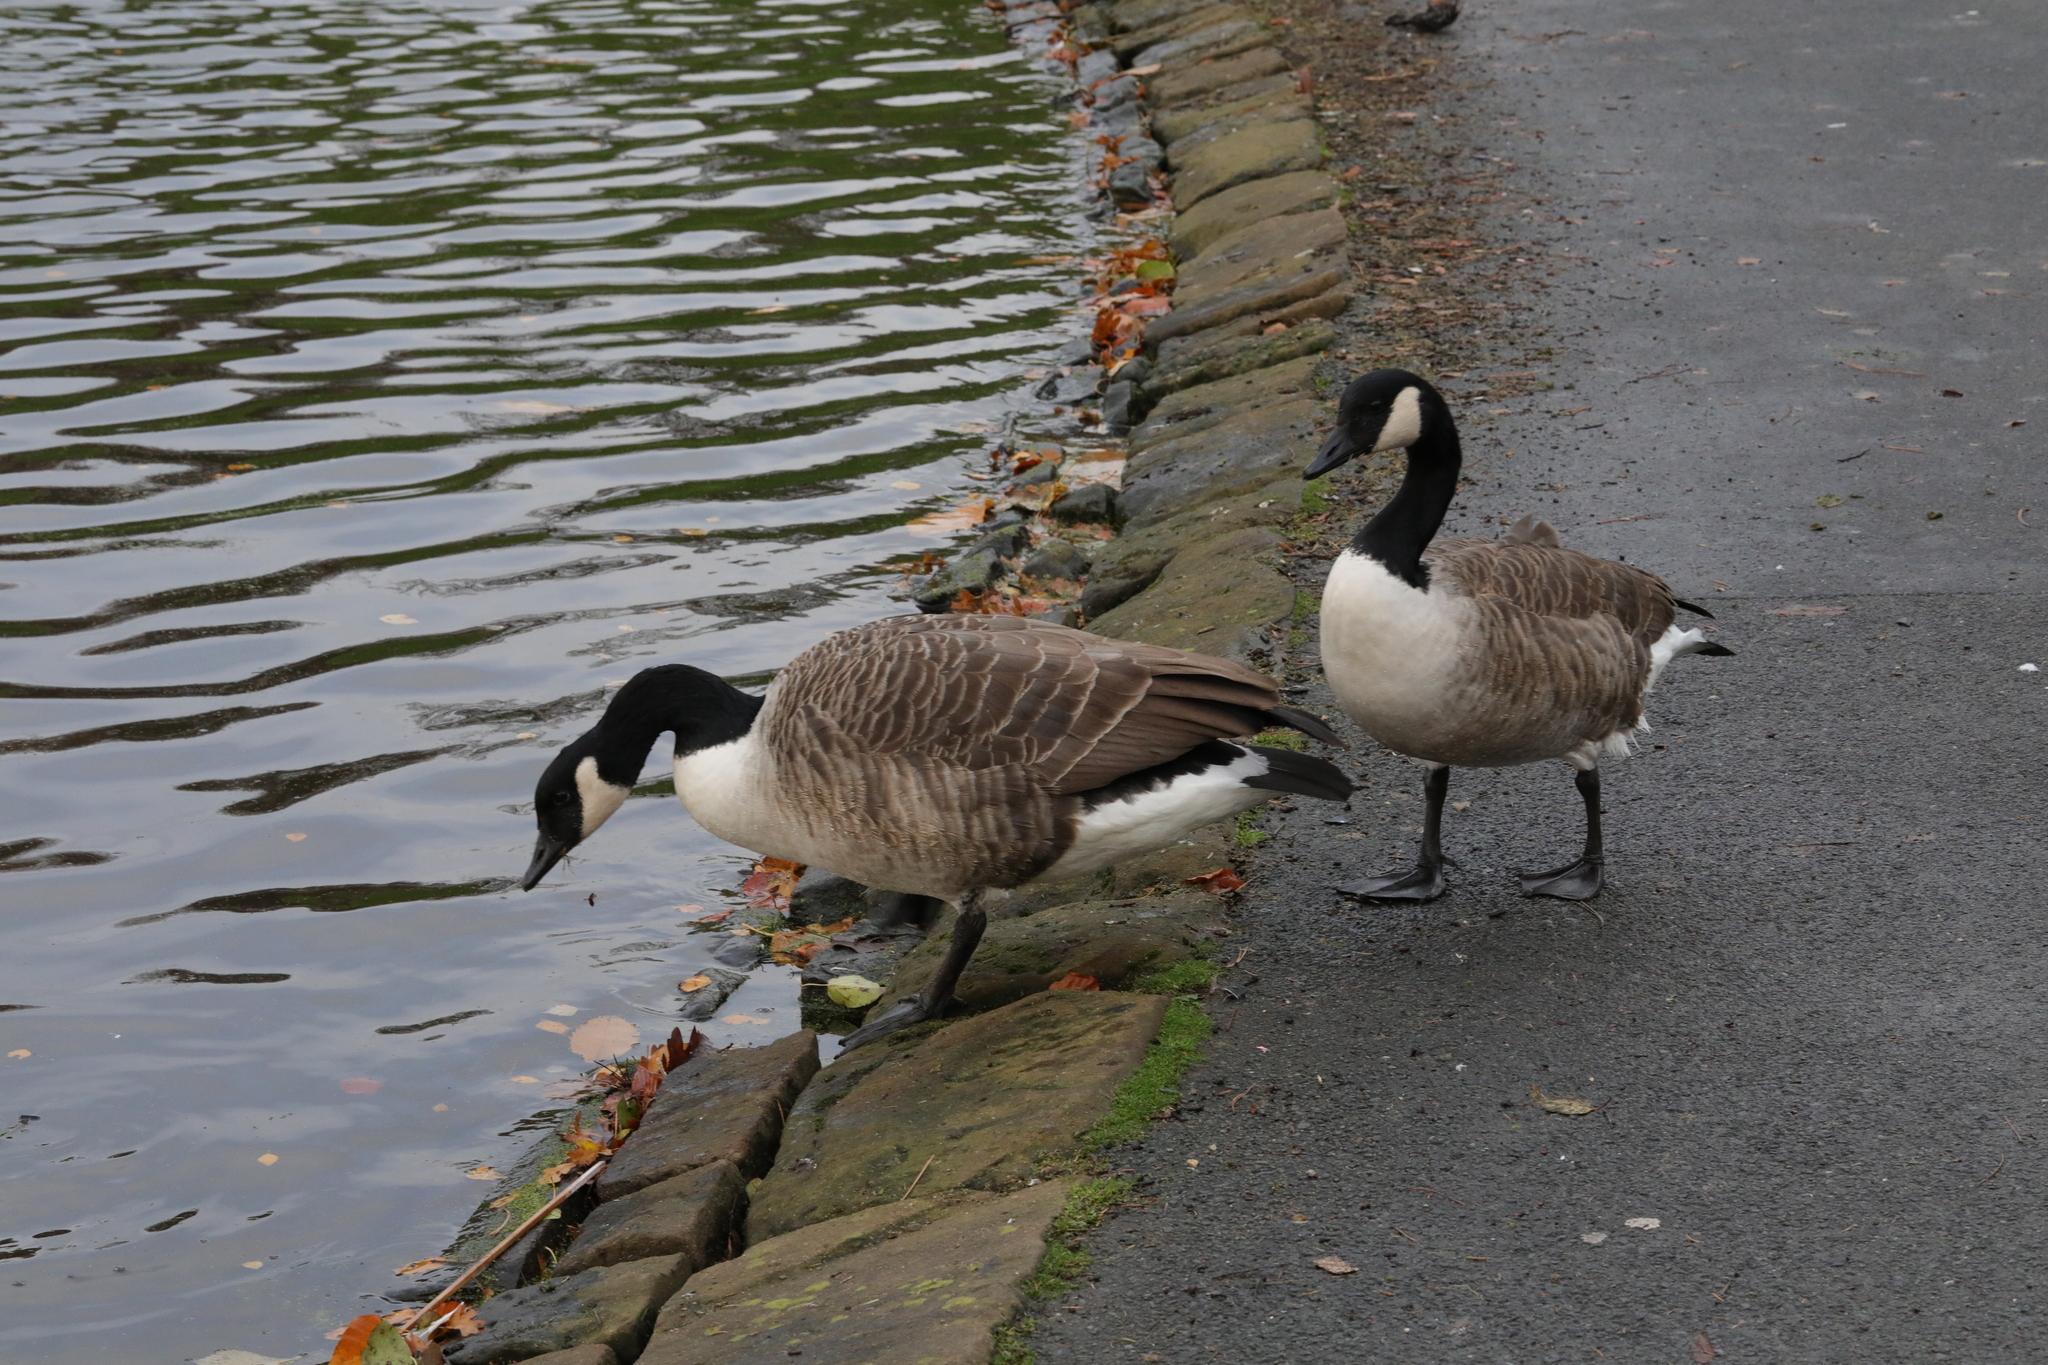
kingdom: Animalia
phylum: Chordata
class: Aves
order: Anseriformes
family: Anatidae
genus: Branta
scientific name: Branta canadensis
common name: Canada goose
